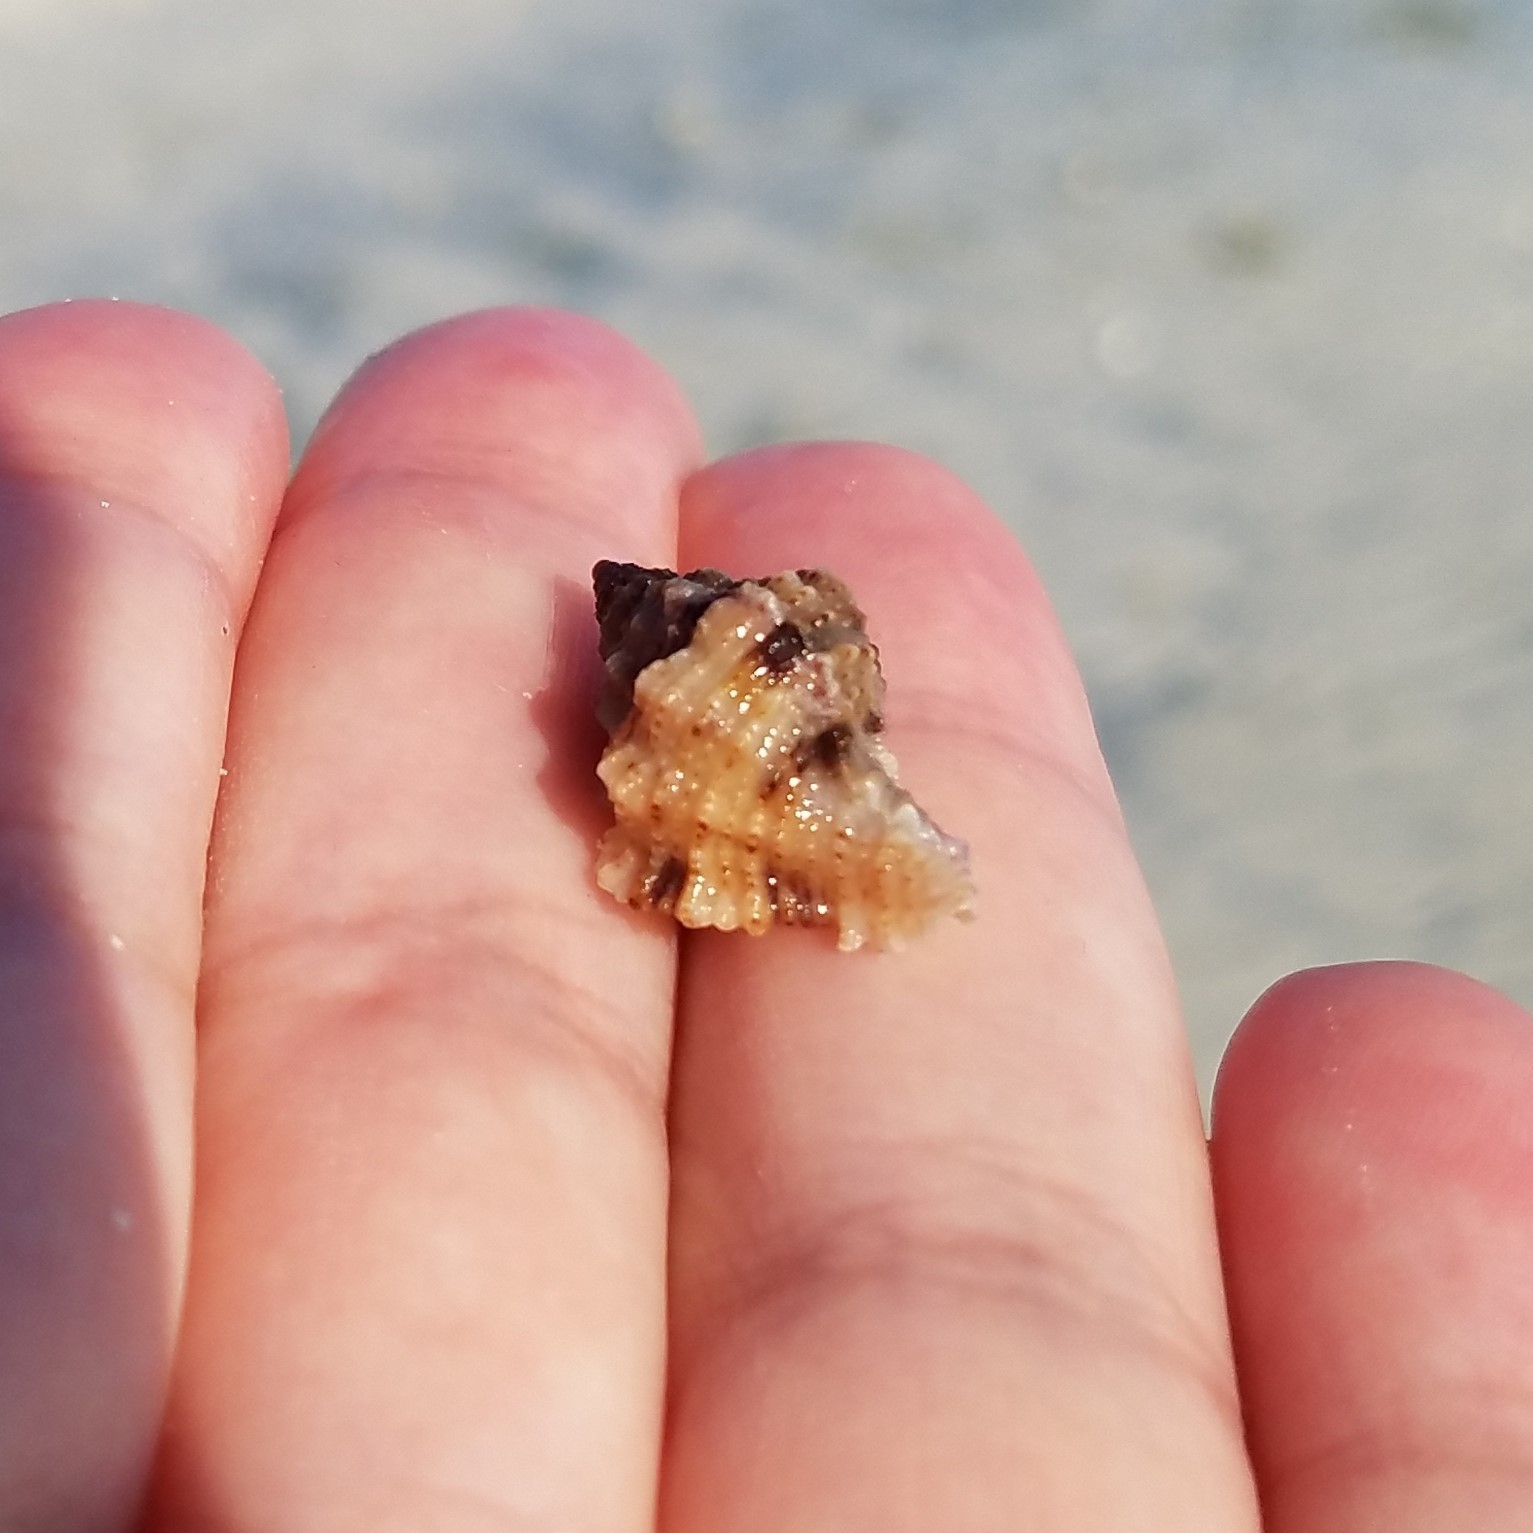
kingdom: Animalia
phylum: Mollusca
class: Gastropoda
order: Neogastropoda
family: Muricidae
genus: Phyllonotus
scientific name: Phyllonotus pomum
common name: Apple murex
